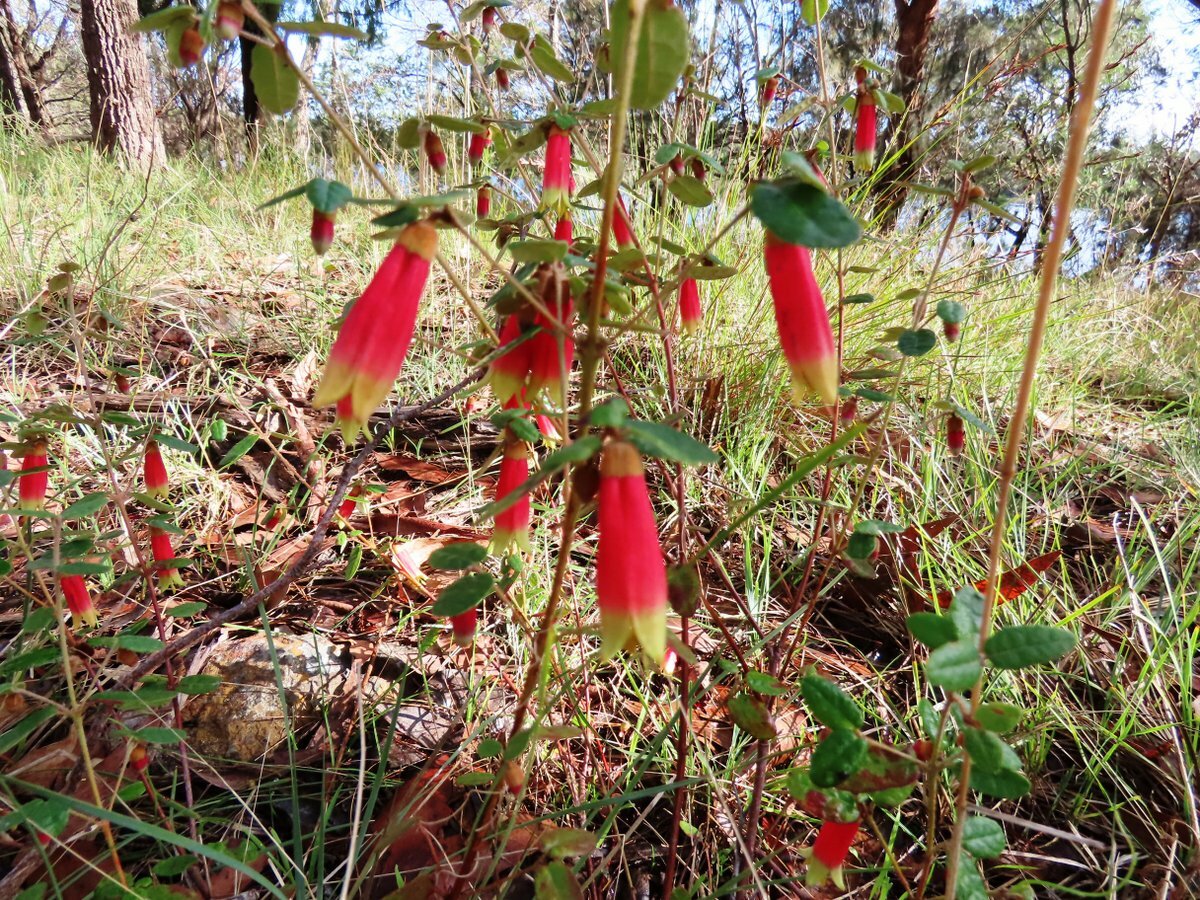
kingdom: Plantae
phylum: Tracheophyta
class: Magnoliopsida
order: Sapindales
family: Rutaceae
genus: Correa
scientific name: Correa reflexa
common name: Common correa
